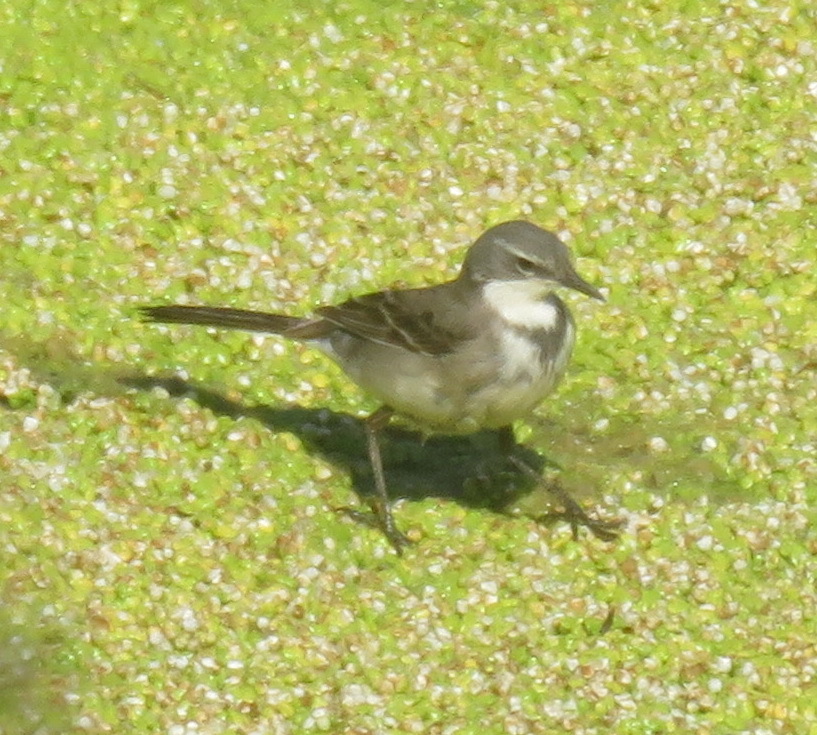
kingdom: Animalia
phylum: Chordata
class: Aves
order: Passeriformes
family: Motacillidae
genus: Motacilla
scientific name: Motacilla capensis
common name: Cape wagtail
